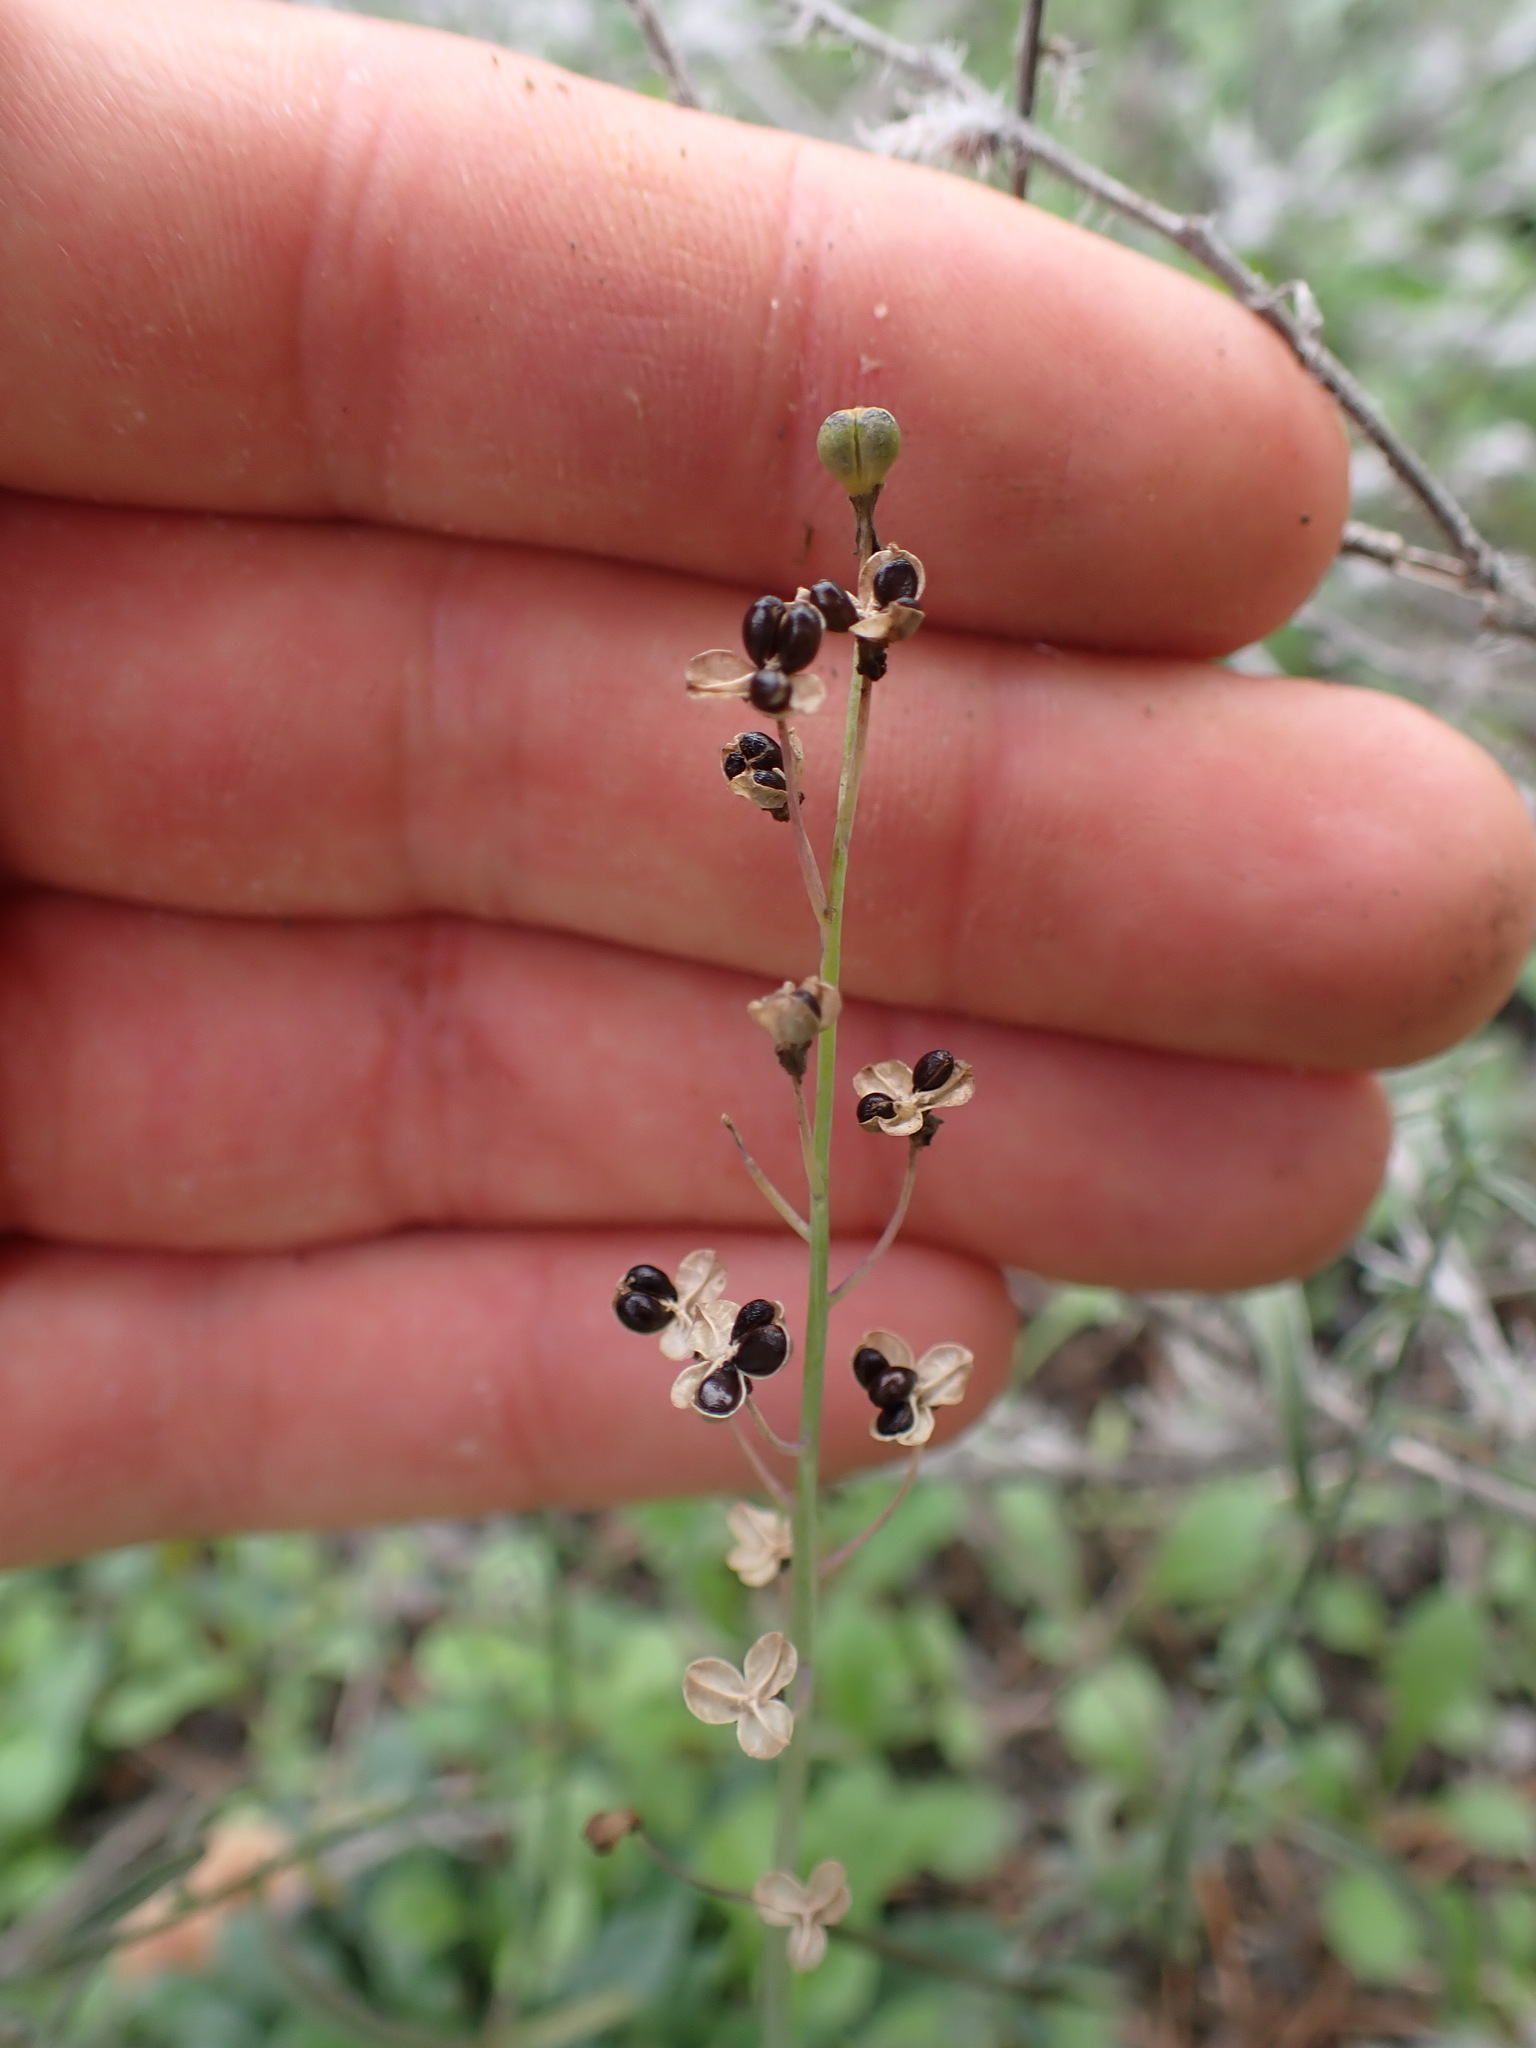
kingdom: Plantae
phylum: Tracheophyta
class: Liliopsida
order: Asparagales
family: Asparagaceae
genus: Prospero
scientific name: Prospero autumnale
